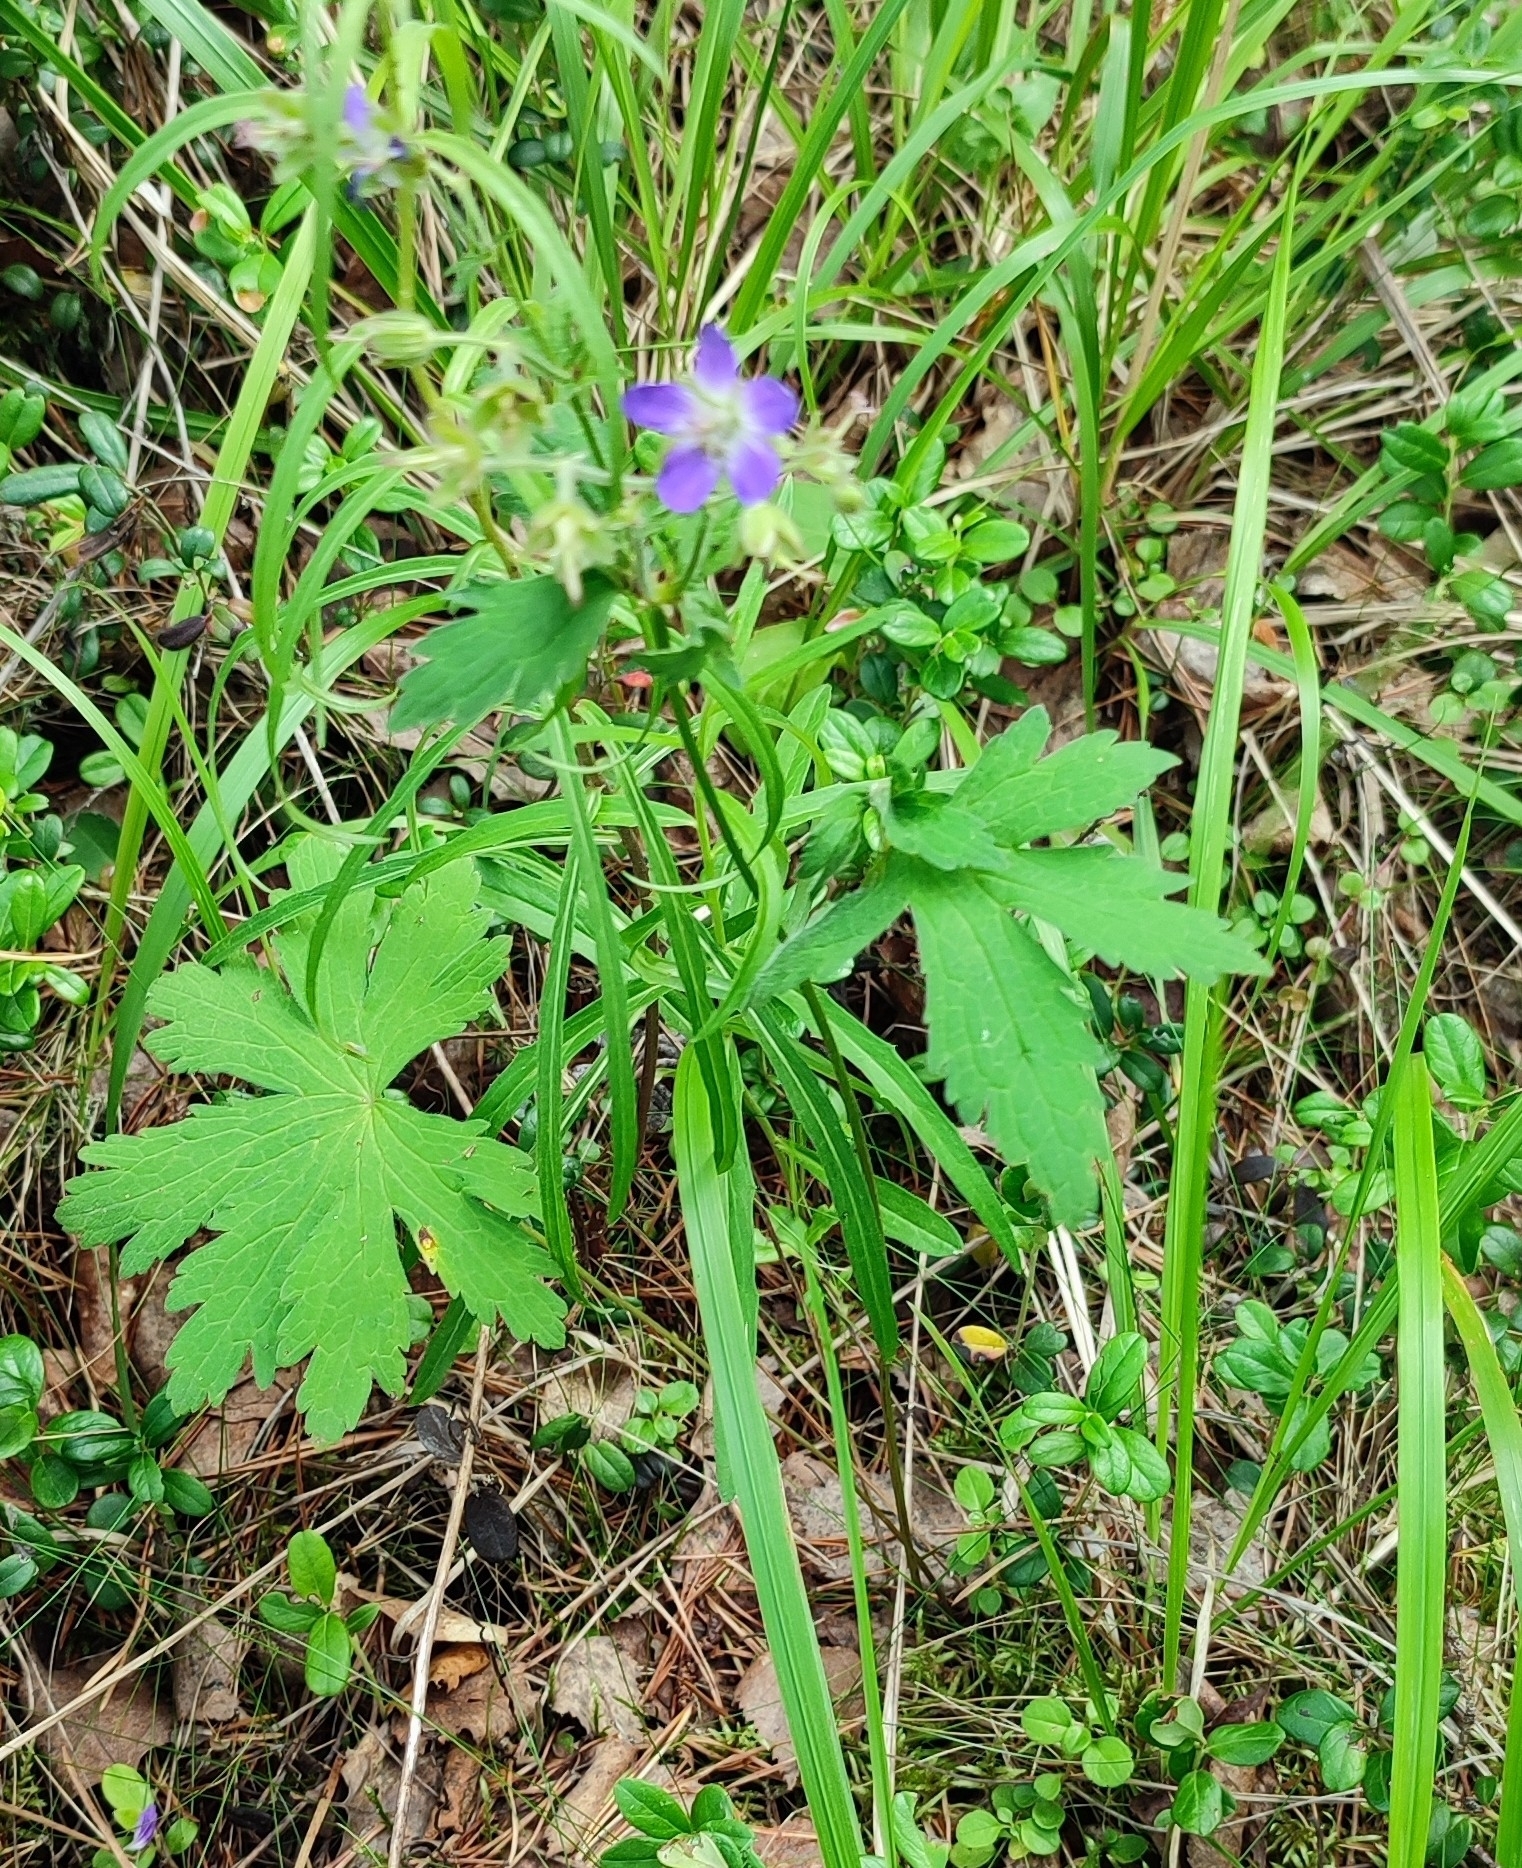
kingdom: Plantae
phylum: Tracheophyta
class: Magnoliopsida
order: Geraniales
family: Geraniaceae
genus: Geranium
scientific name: Geranium sylvaticum
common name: Wood crane's-bill
